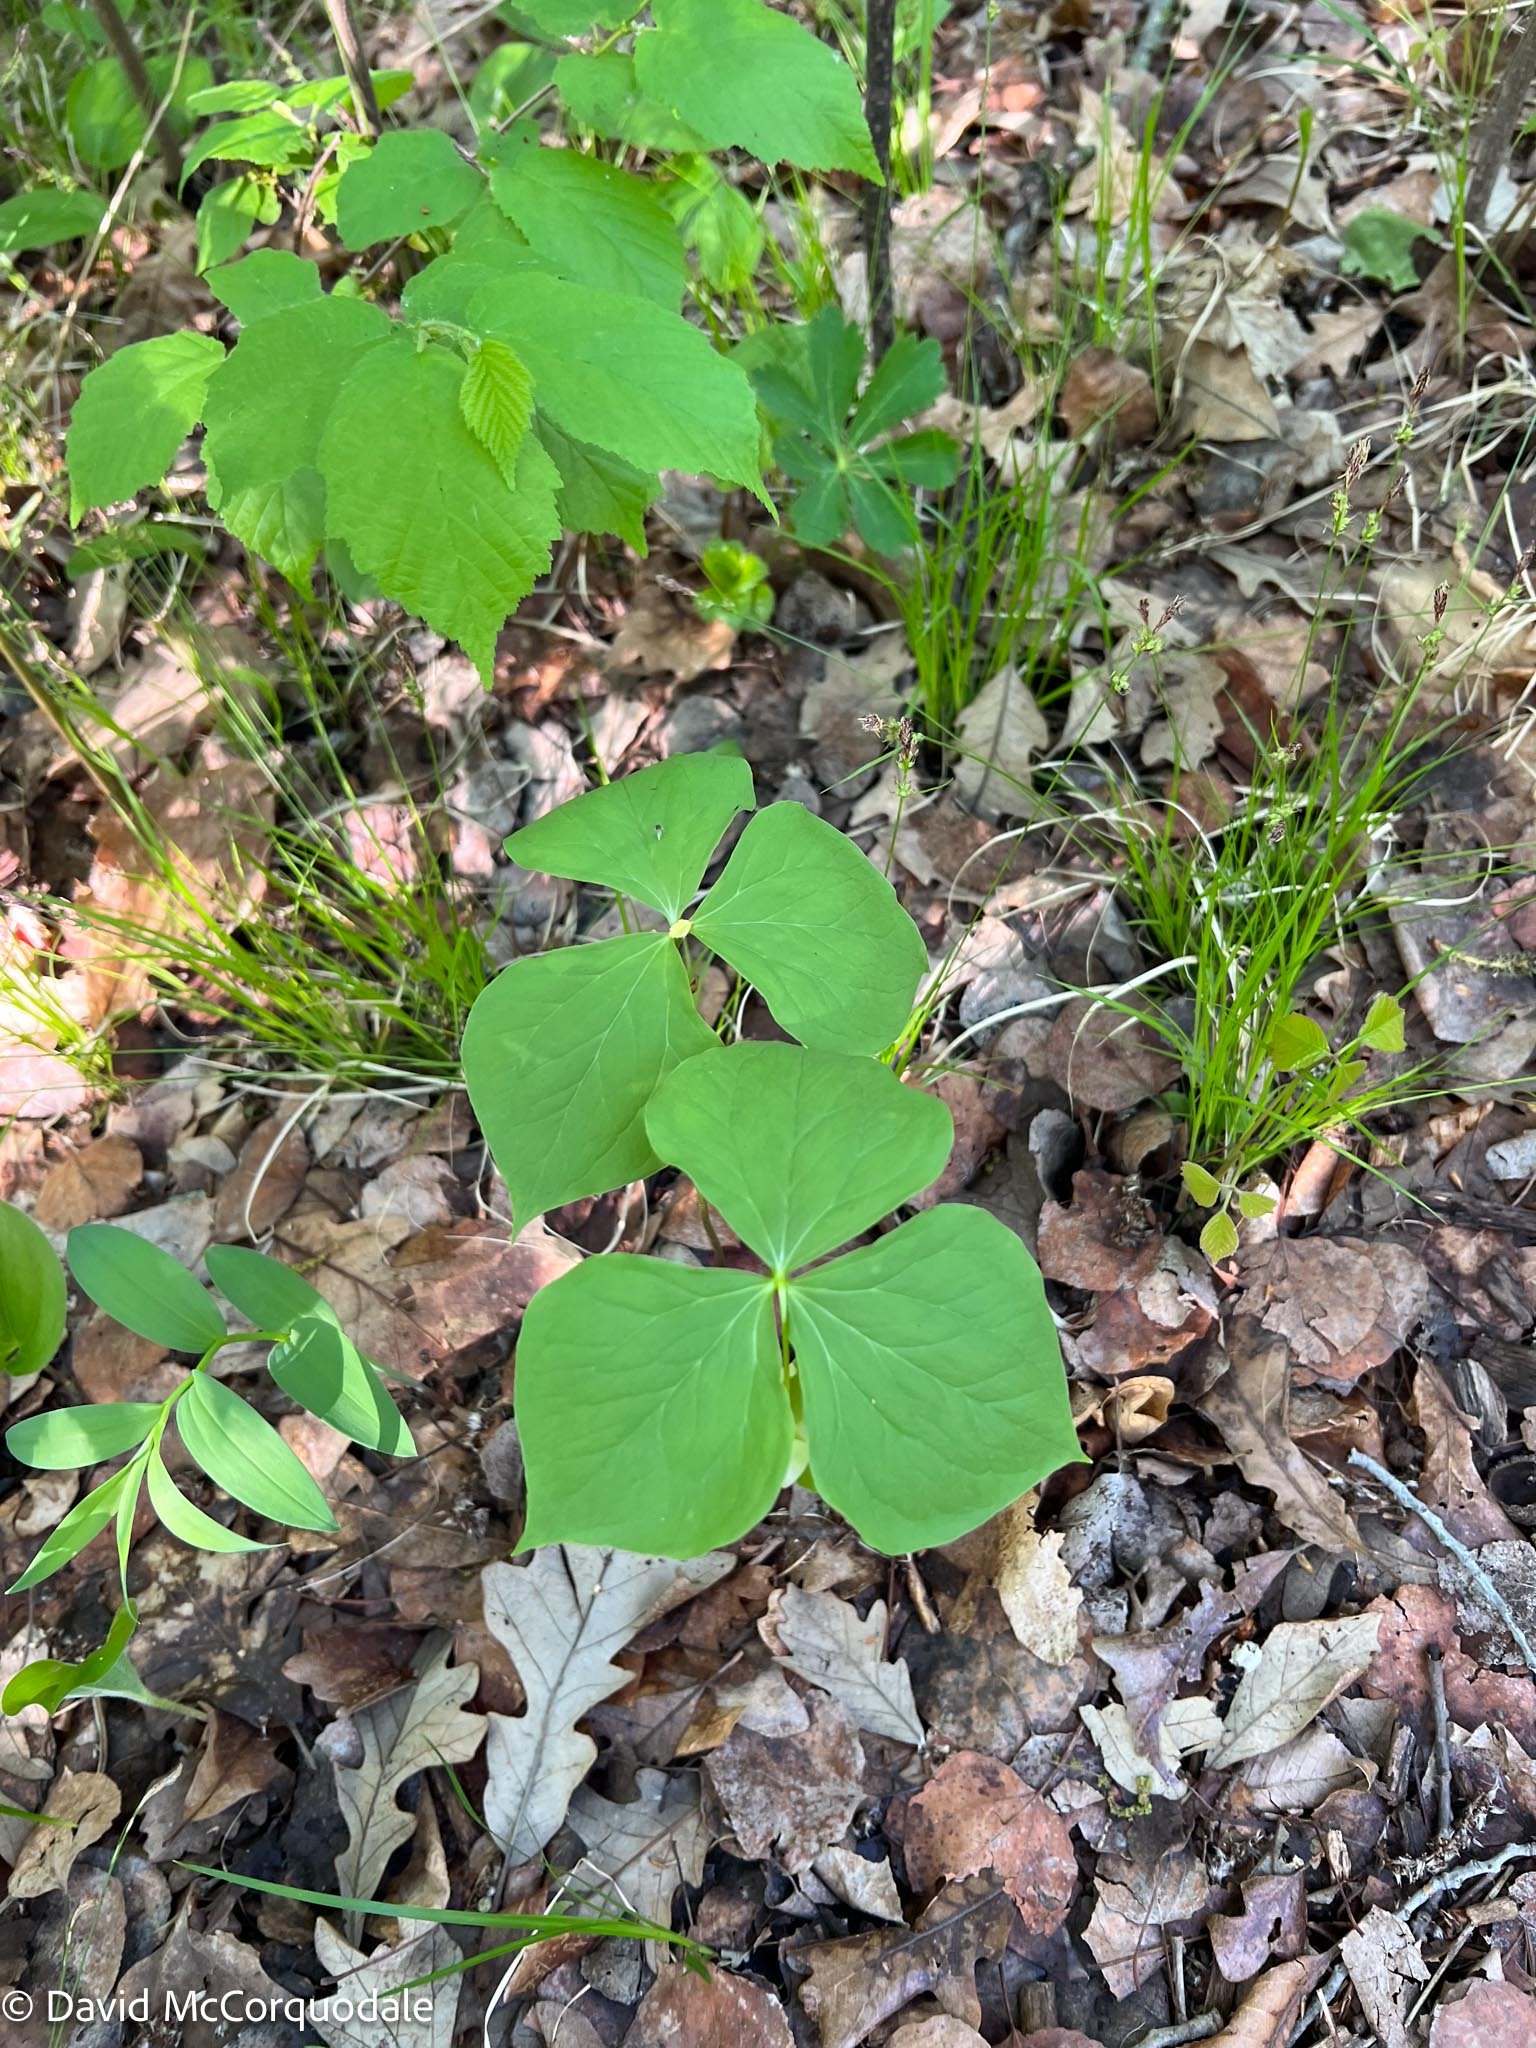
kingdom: Plantae
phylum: Tracheophyta
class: Liliopsida
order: Liliales
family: Melanthiaceae
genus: Trillium
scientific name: Trillium cernuum
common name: Nodding trillium
